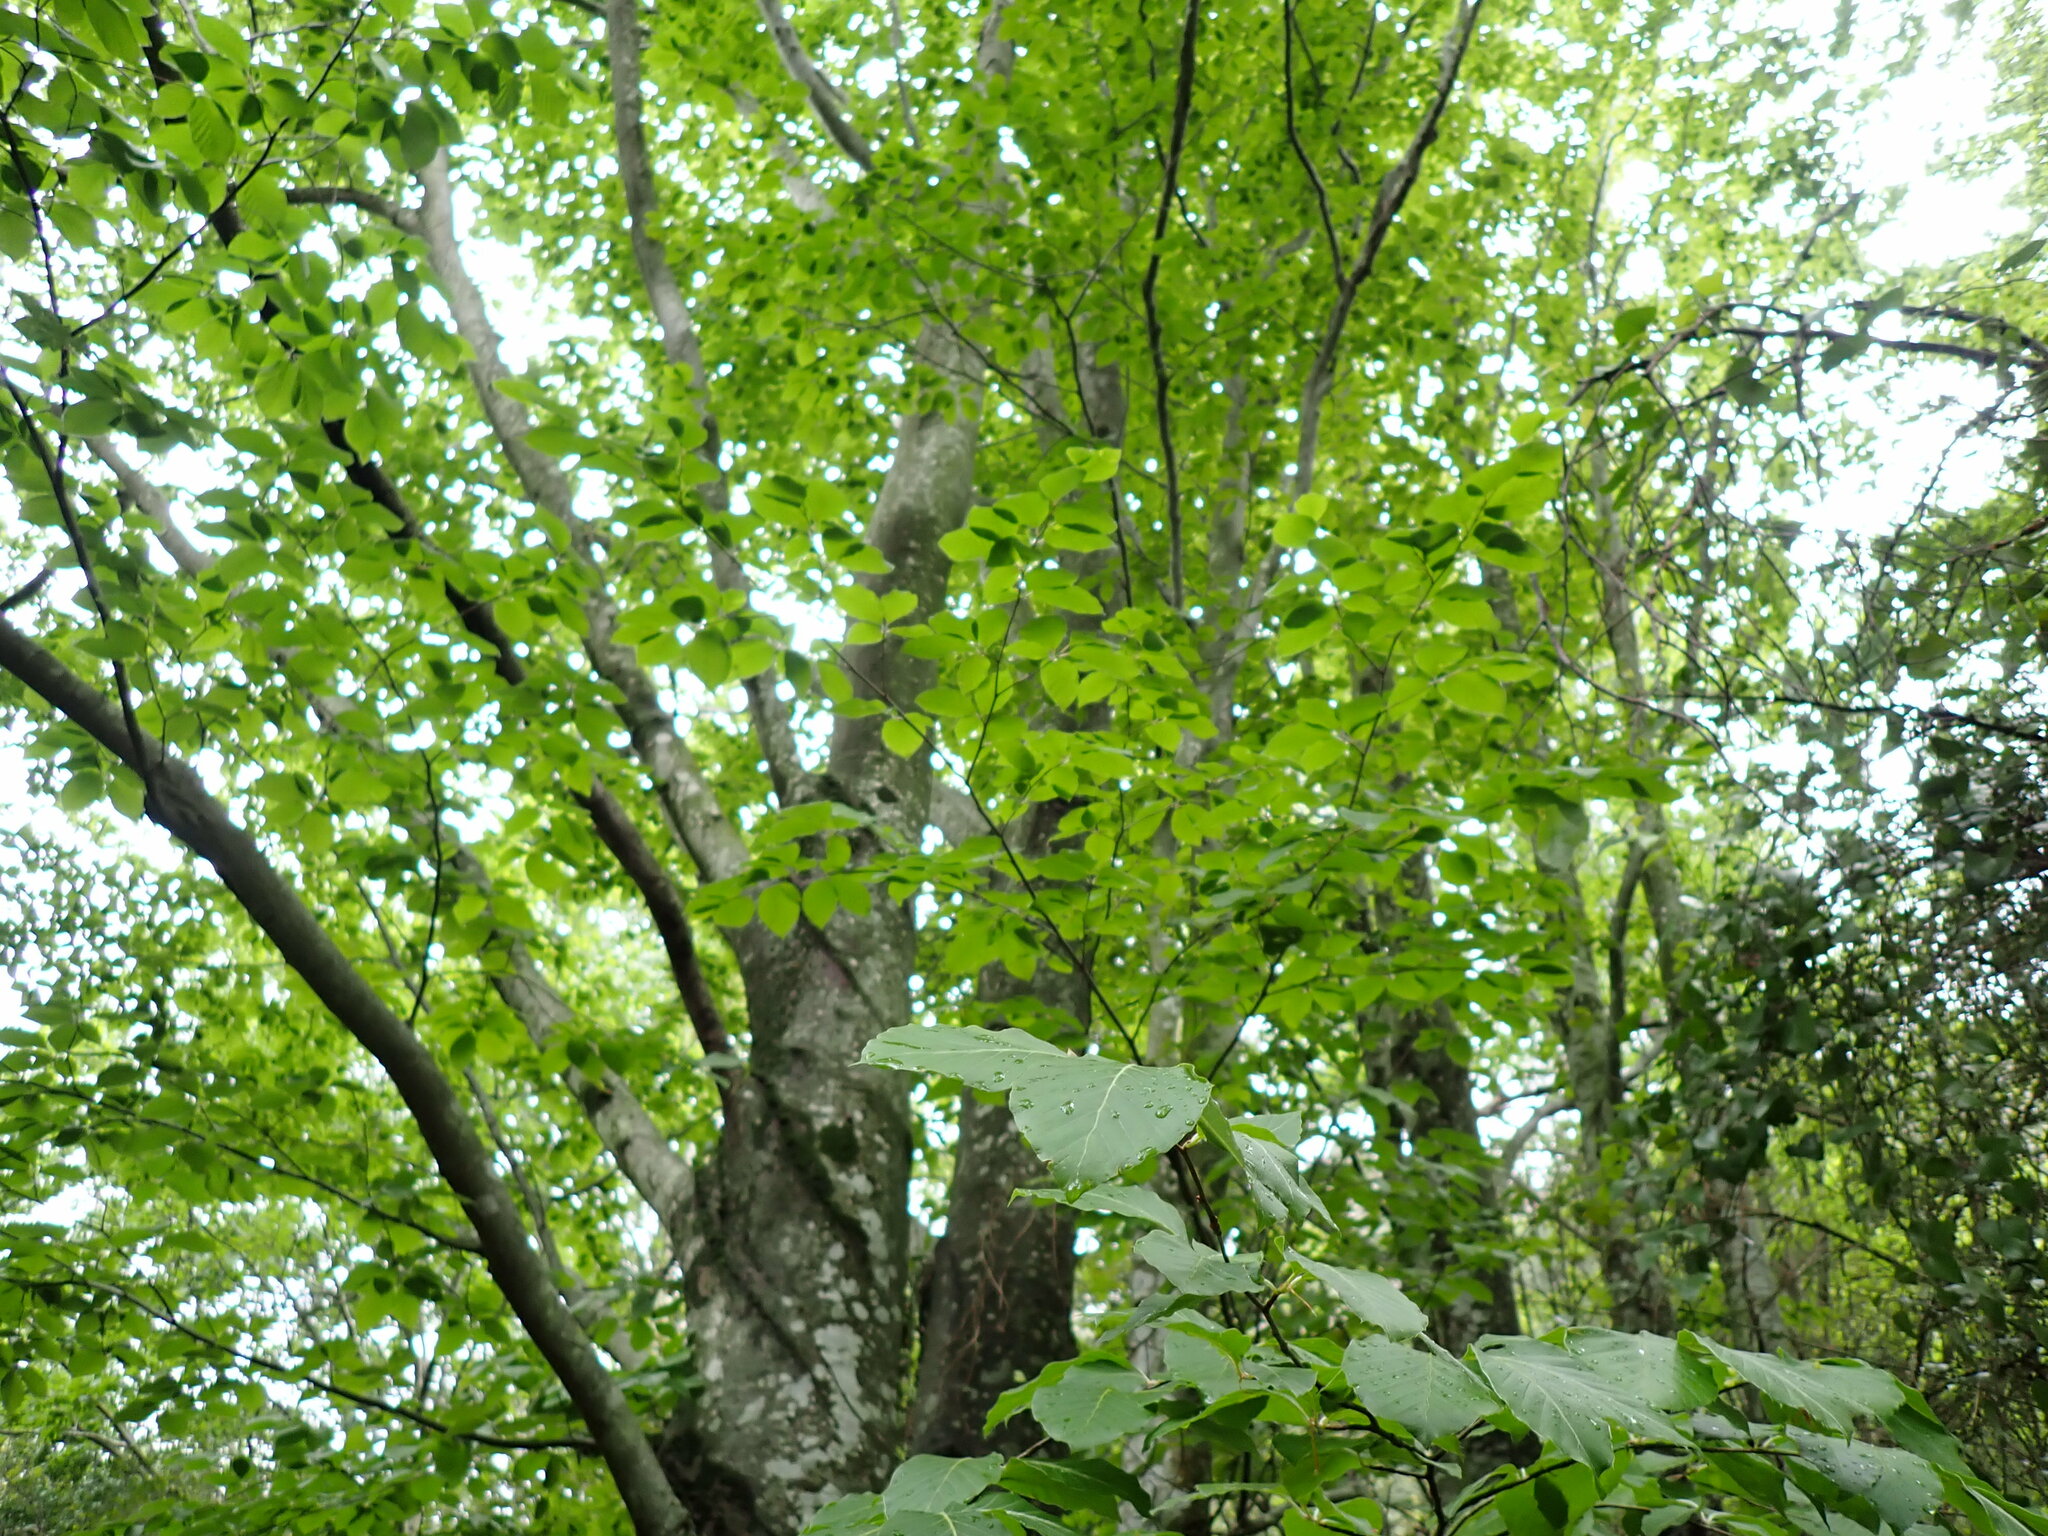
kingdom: Plantae
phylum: Tracheophyta
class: Magnoliopsida
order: Fagales
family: Fagaceae
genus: Fagus
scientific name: Fagus sylvatica
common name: Beech
